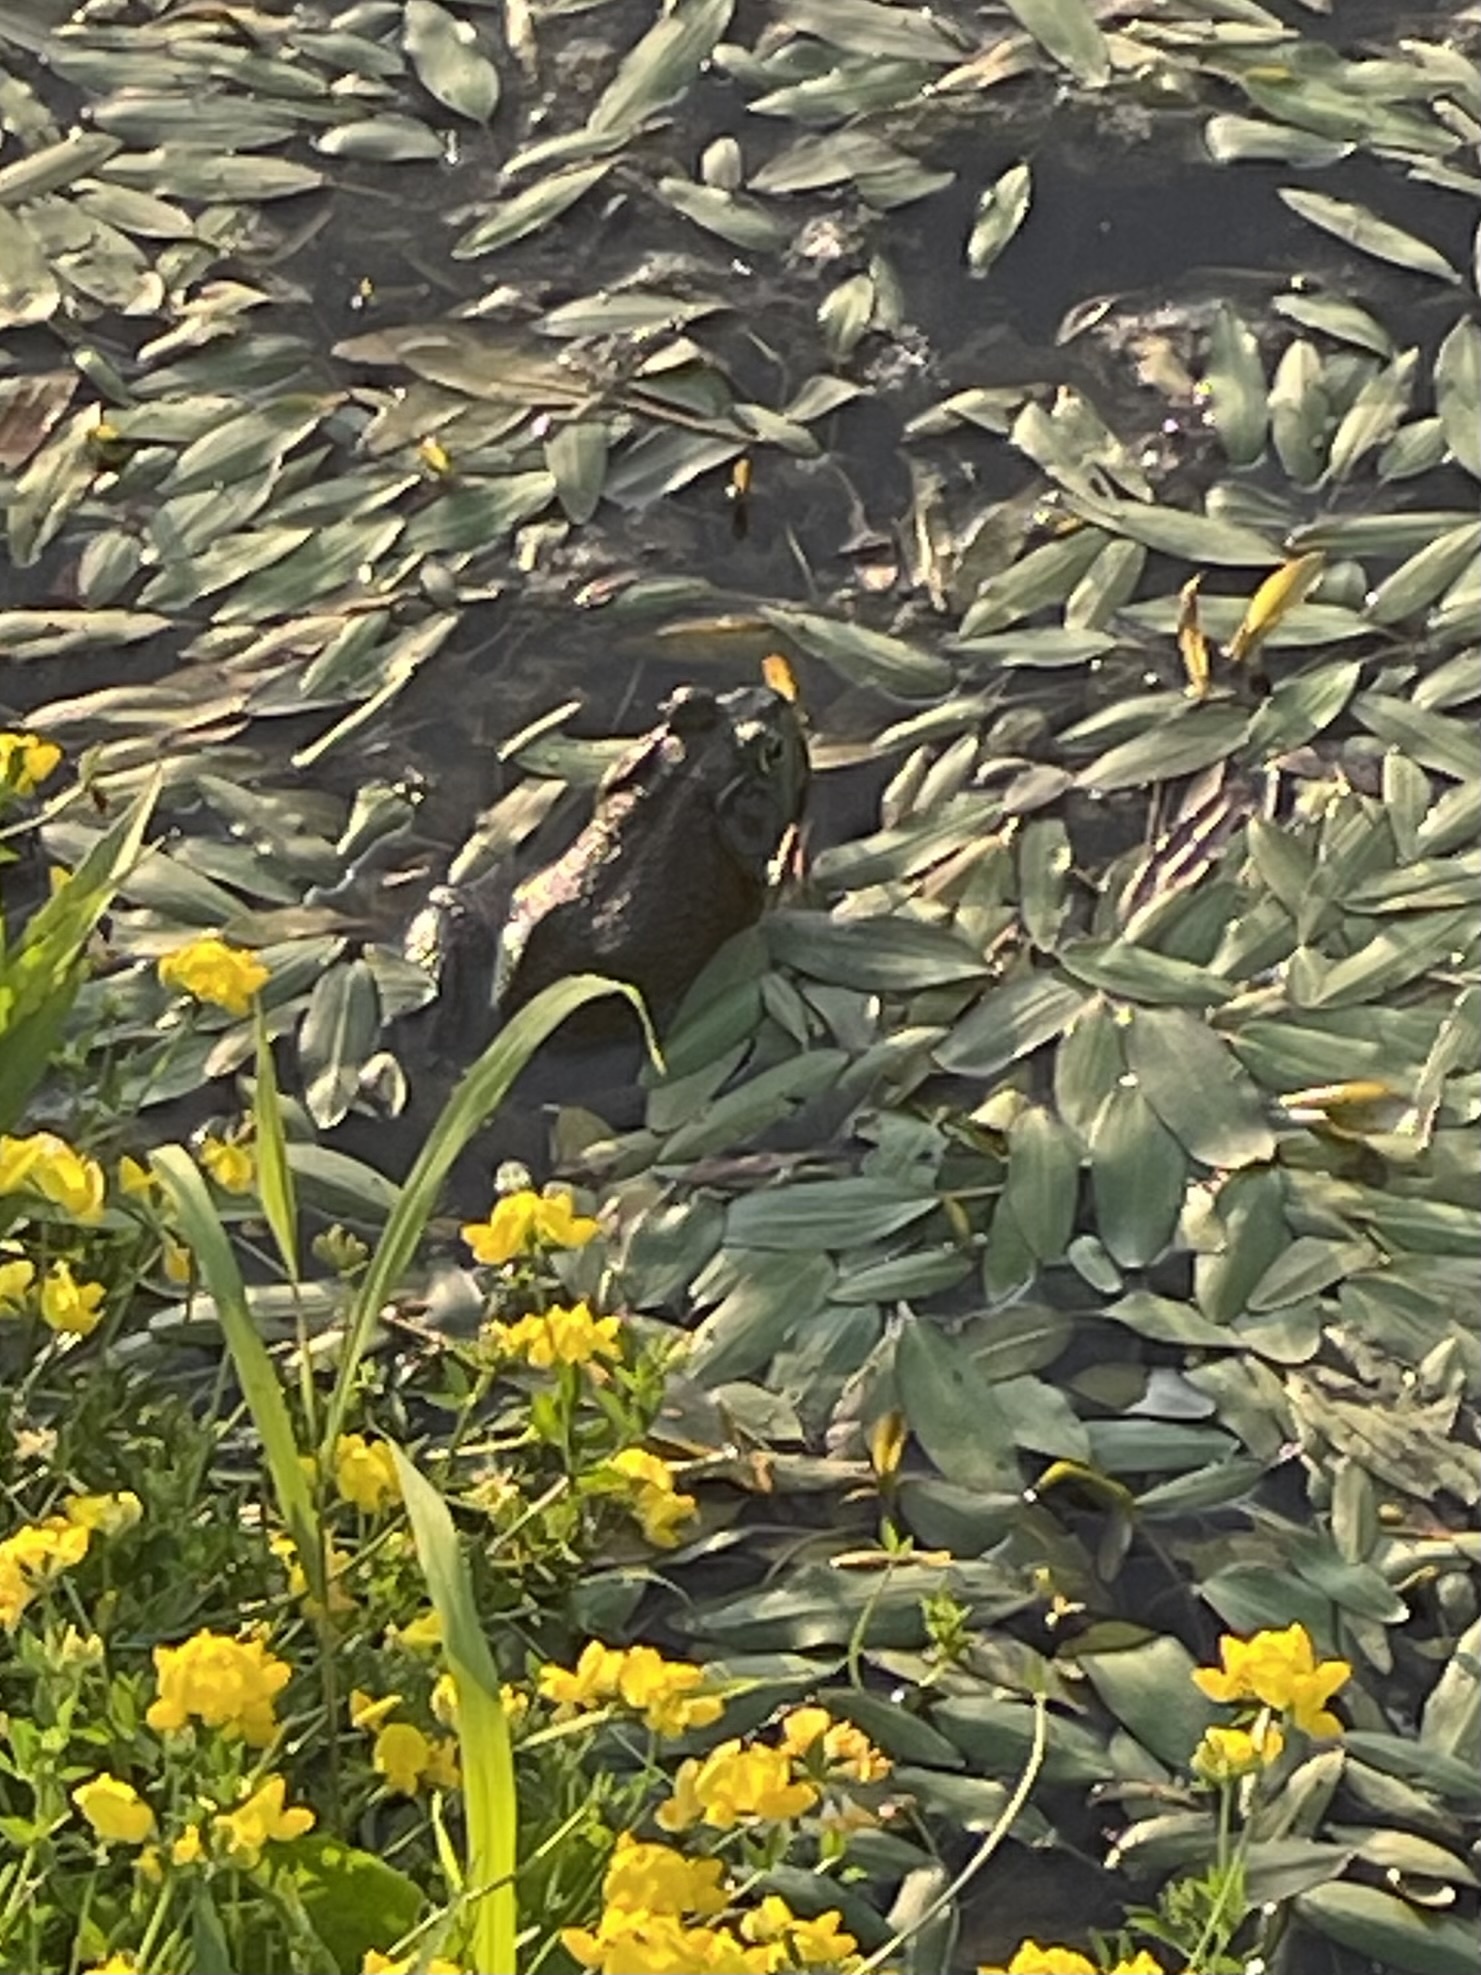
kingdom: Animalia
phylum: Chordata
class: Amphibia
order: Anura
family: Ranidae
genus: Lithobates
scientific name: Lithobates catesbeianus
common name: American bullfrog
